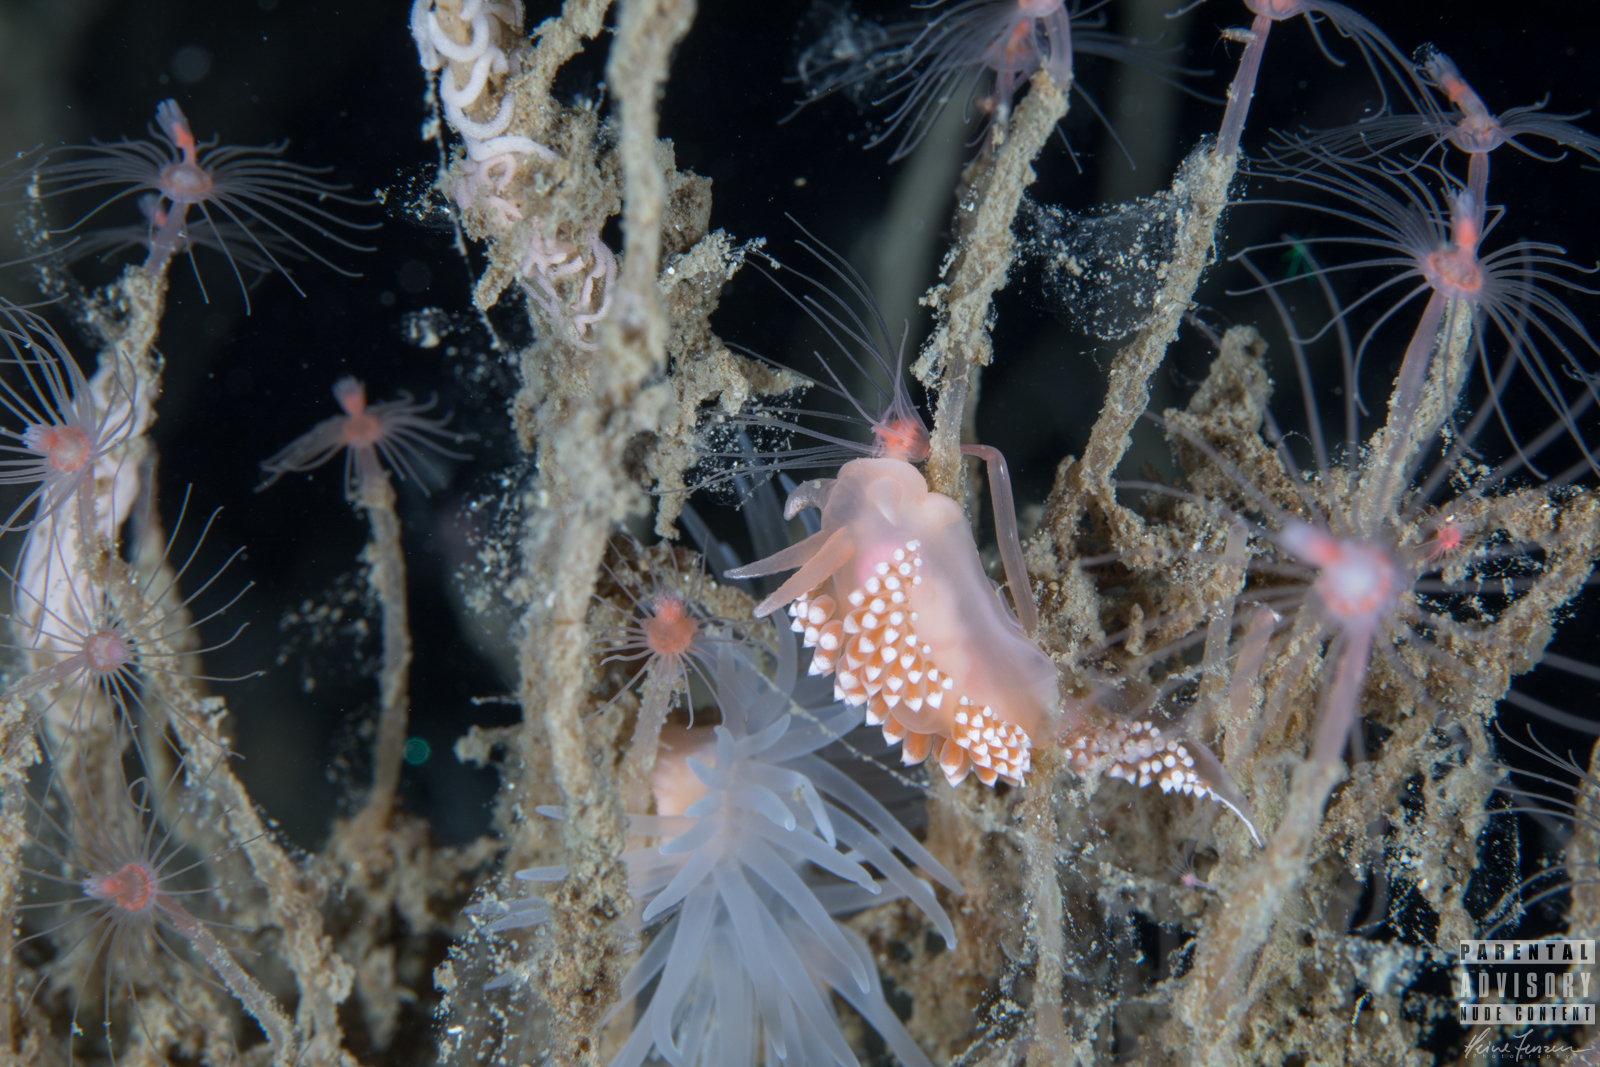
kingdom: Animalia
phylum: Mollusca
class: Gastropoda
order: Nudibranchia
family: Coryphellidae
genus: Coryphella
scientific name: Coryphella verrucosa
